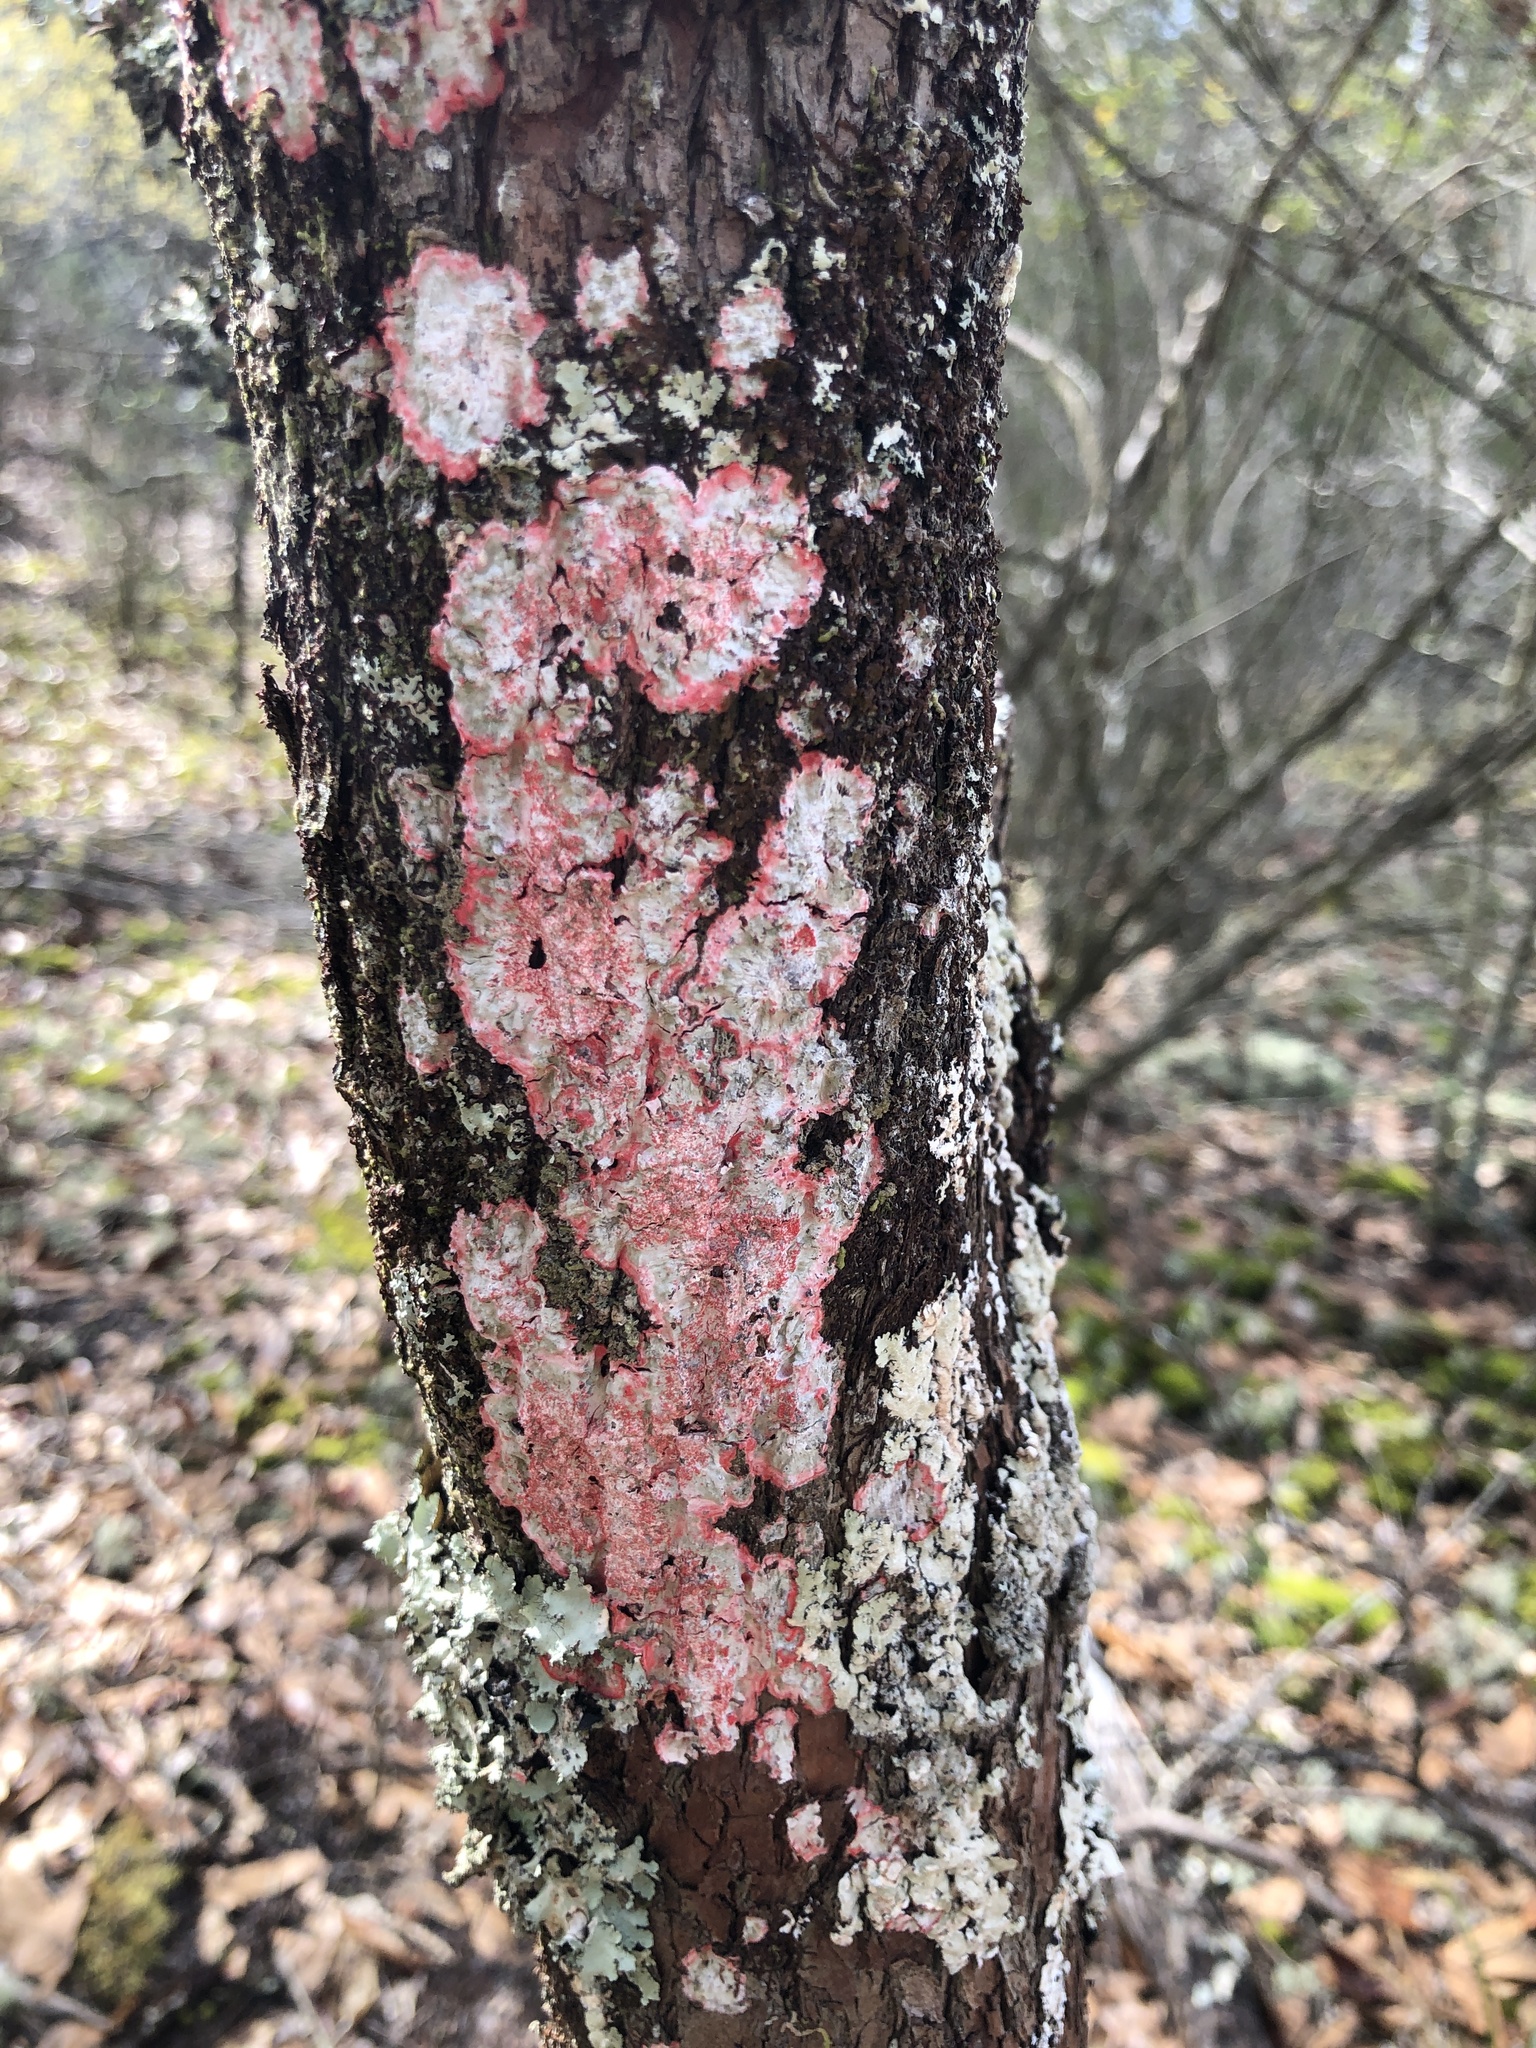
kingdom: Fungi
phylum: Ascomycota
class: Arthoniomycetes
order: Arthoniales
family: Arthoniaceae
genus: Herpothallon
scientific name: Herpothallon rubrocinctum
